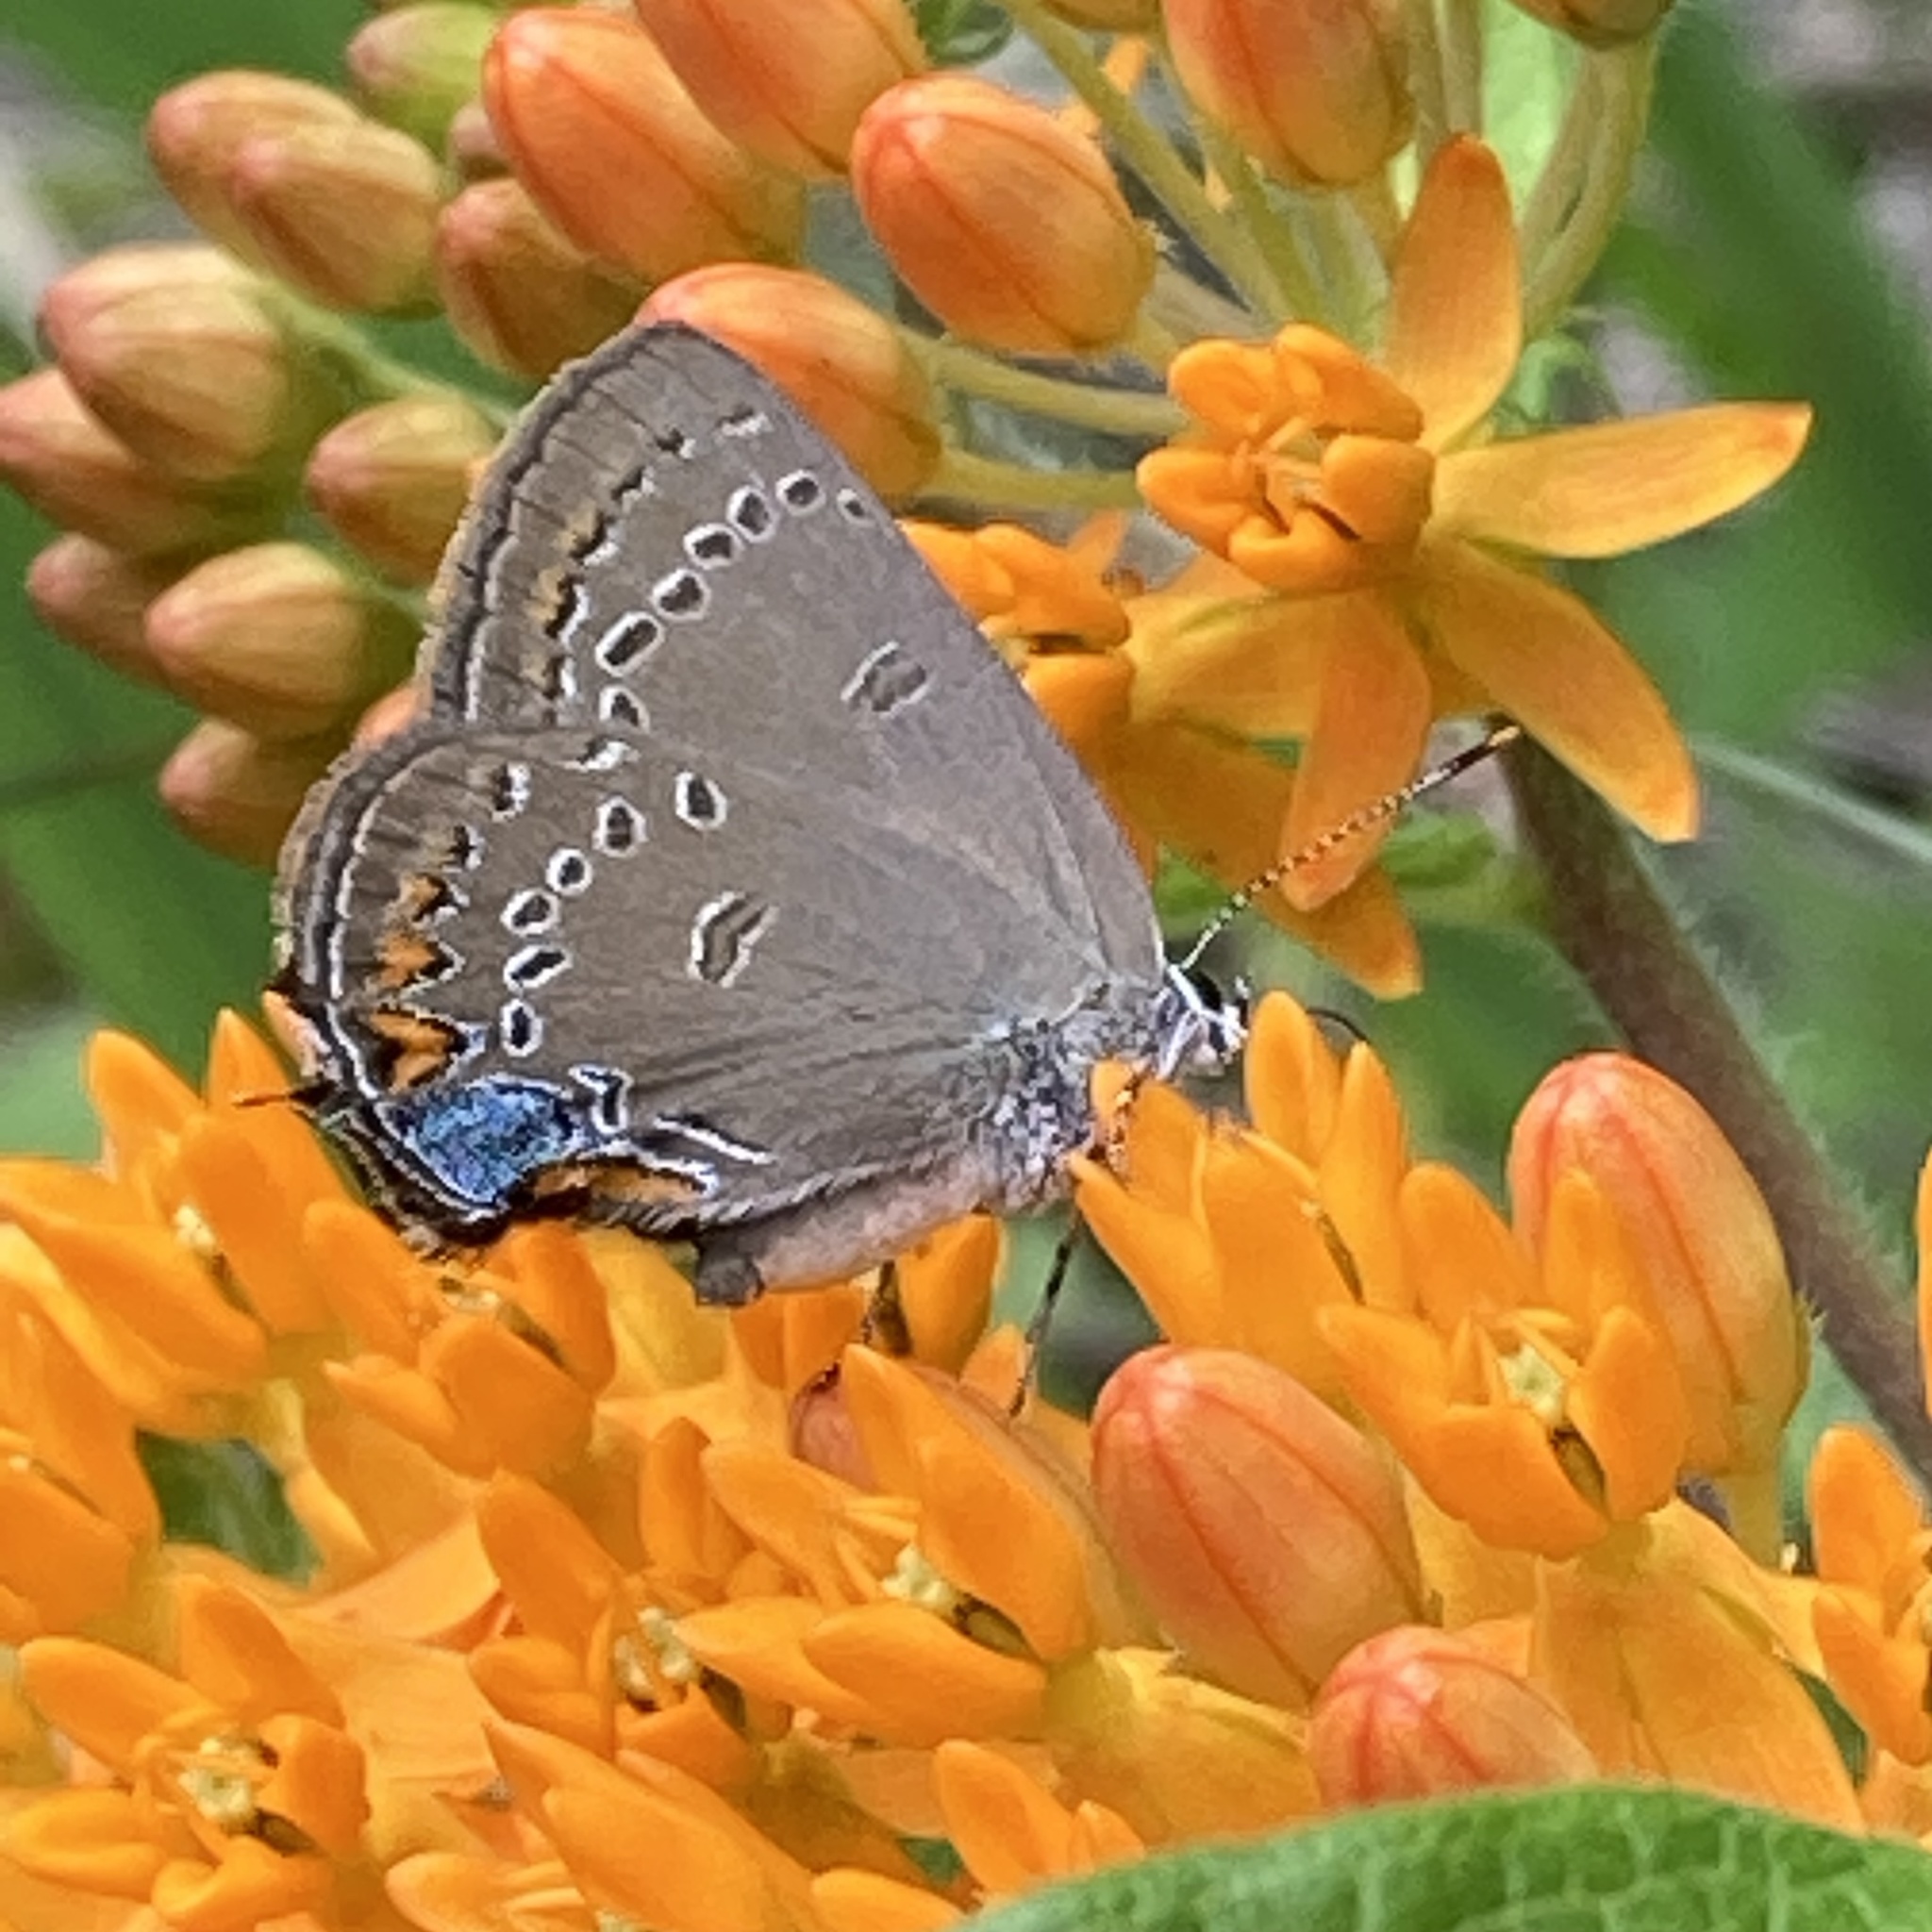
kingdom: Animalia
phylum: Arthropoda
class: Insecta
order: Lepidoptera
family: Lycaenidae
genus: Satyrium
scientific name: Satyrium edwardsii
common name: Edwards' hairstreak
